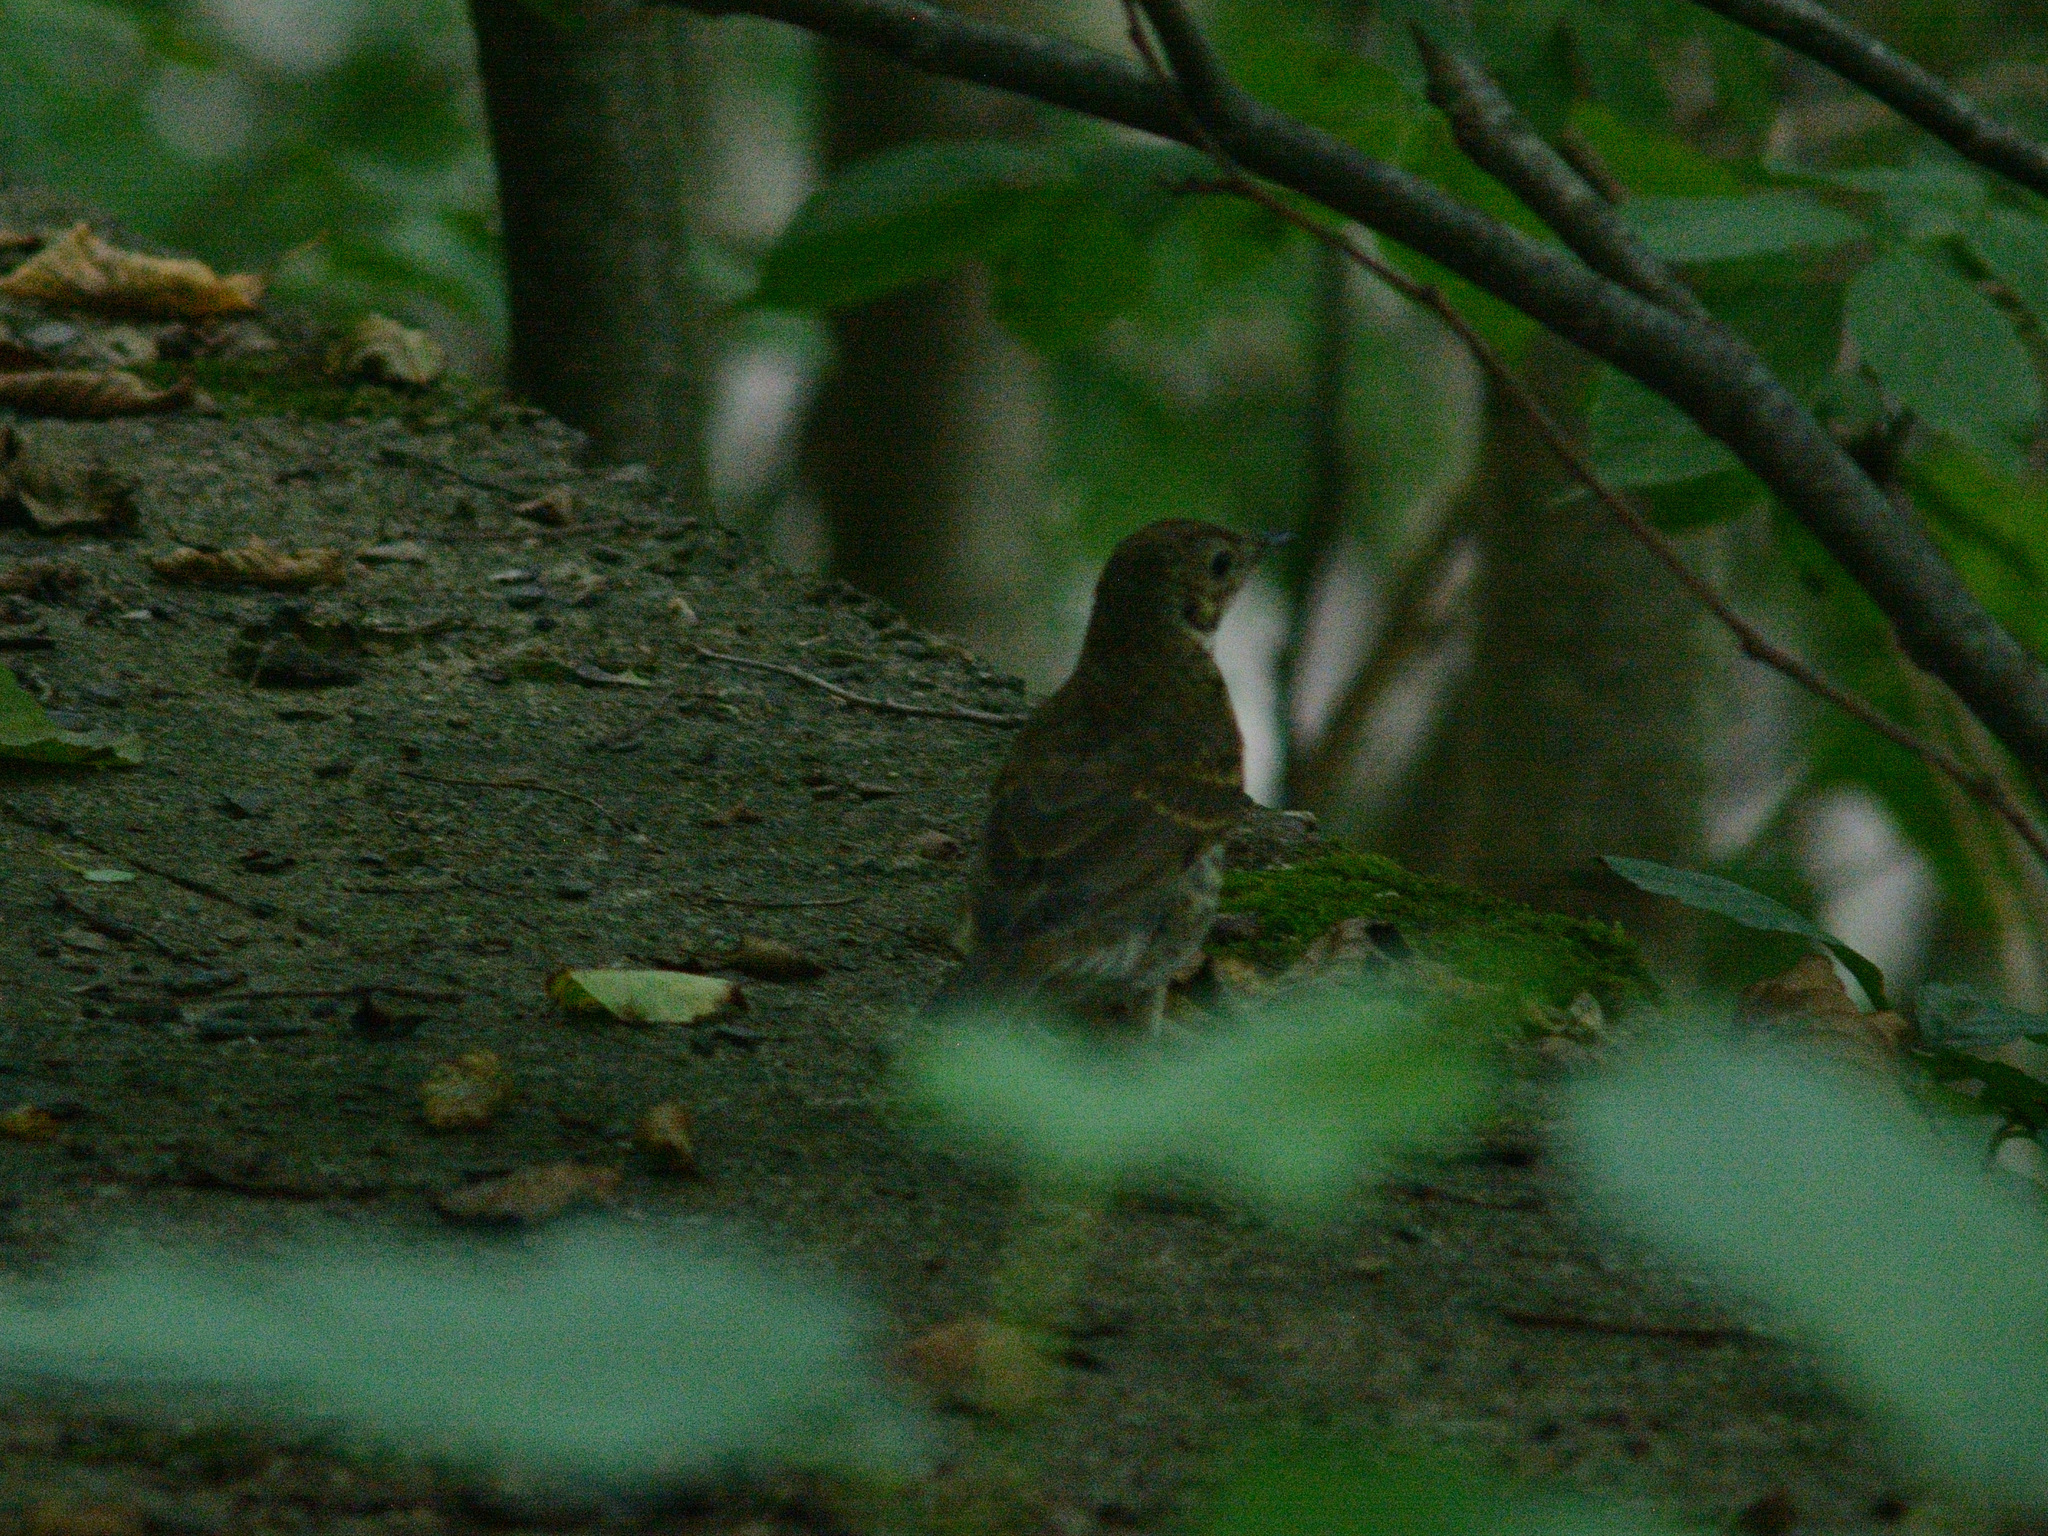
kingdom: Animalia
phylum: Chordata
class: Aves
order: Passeriformes
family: Turdidae
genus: Turdus
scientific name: Turdus philomelos
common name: Song thrush
